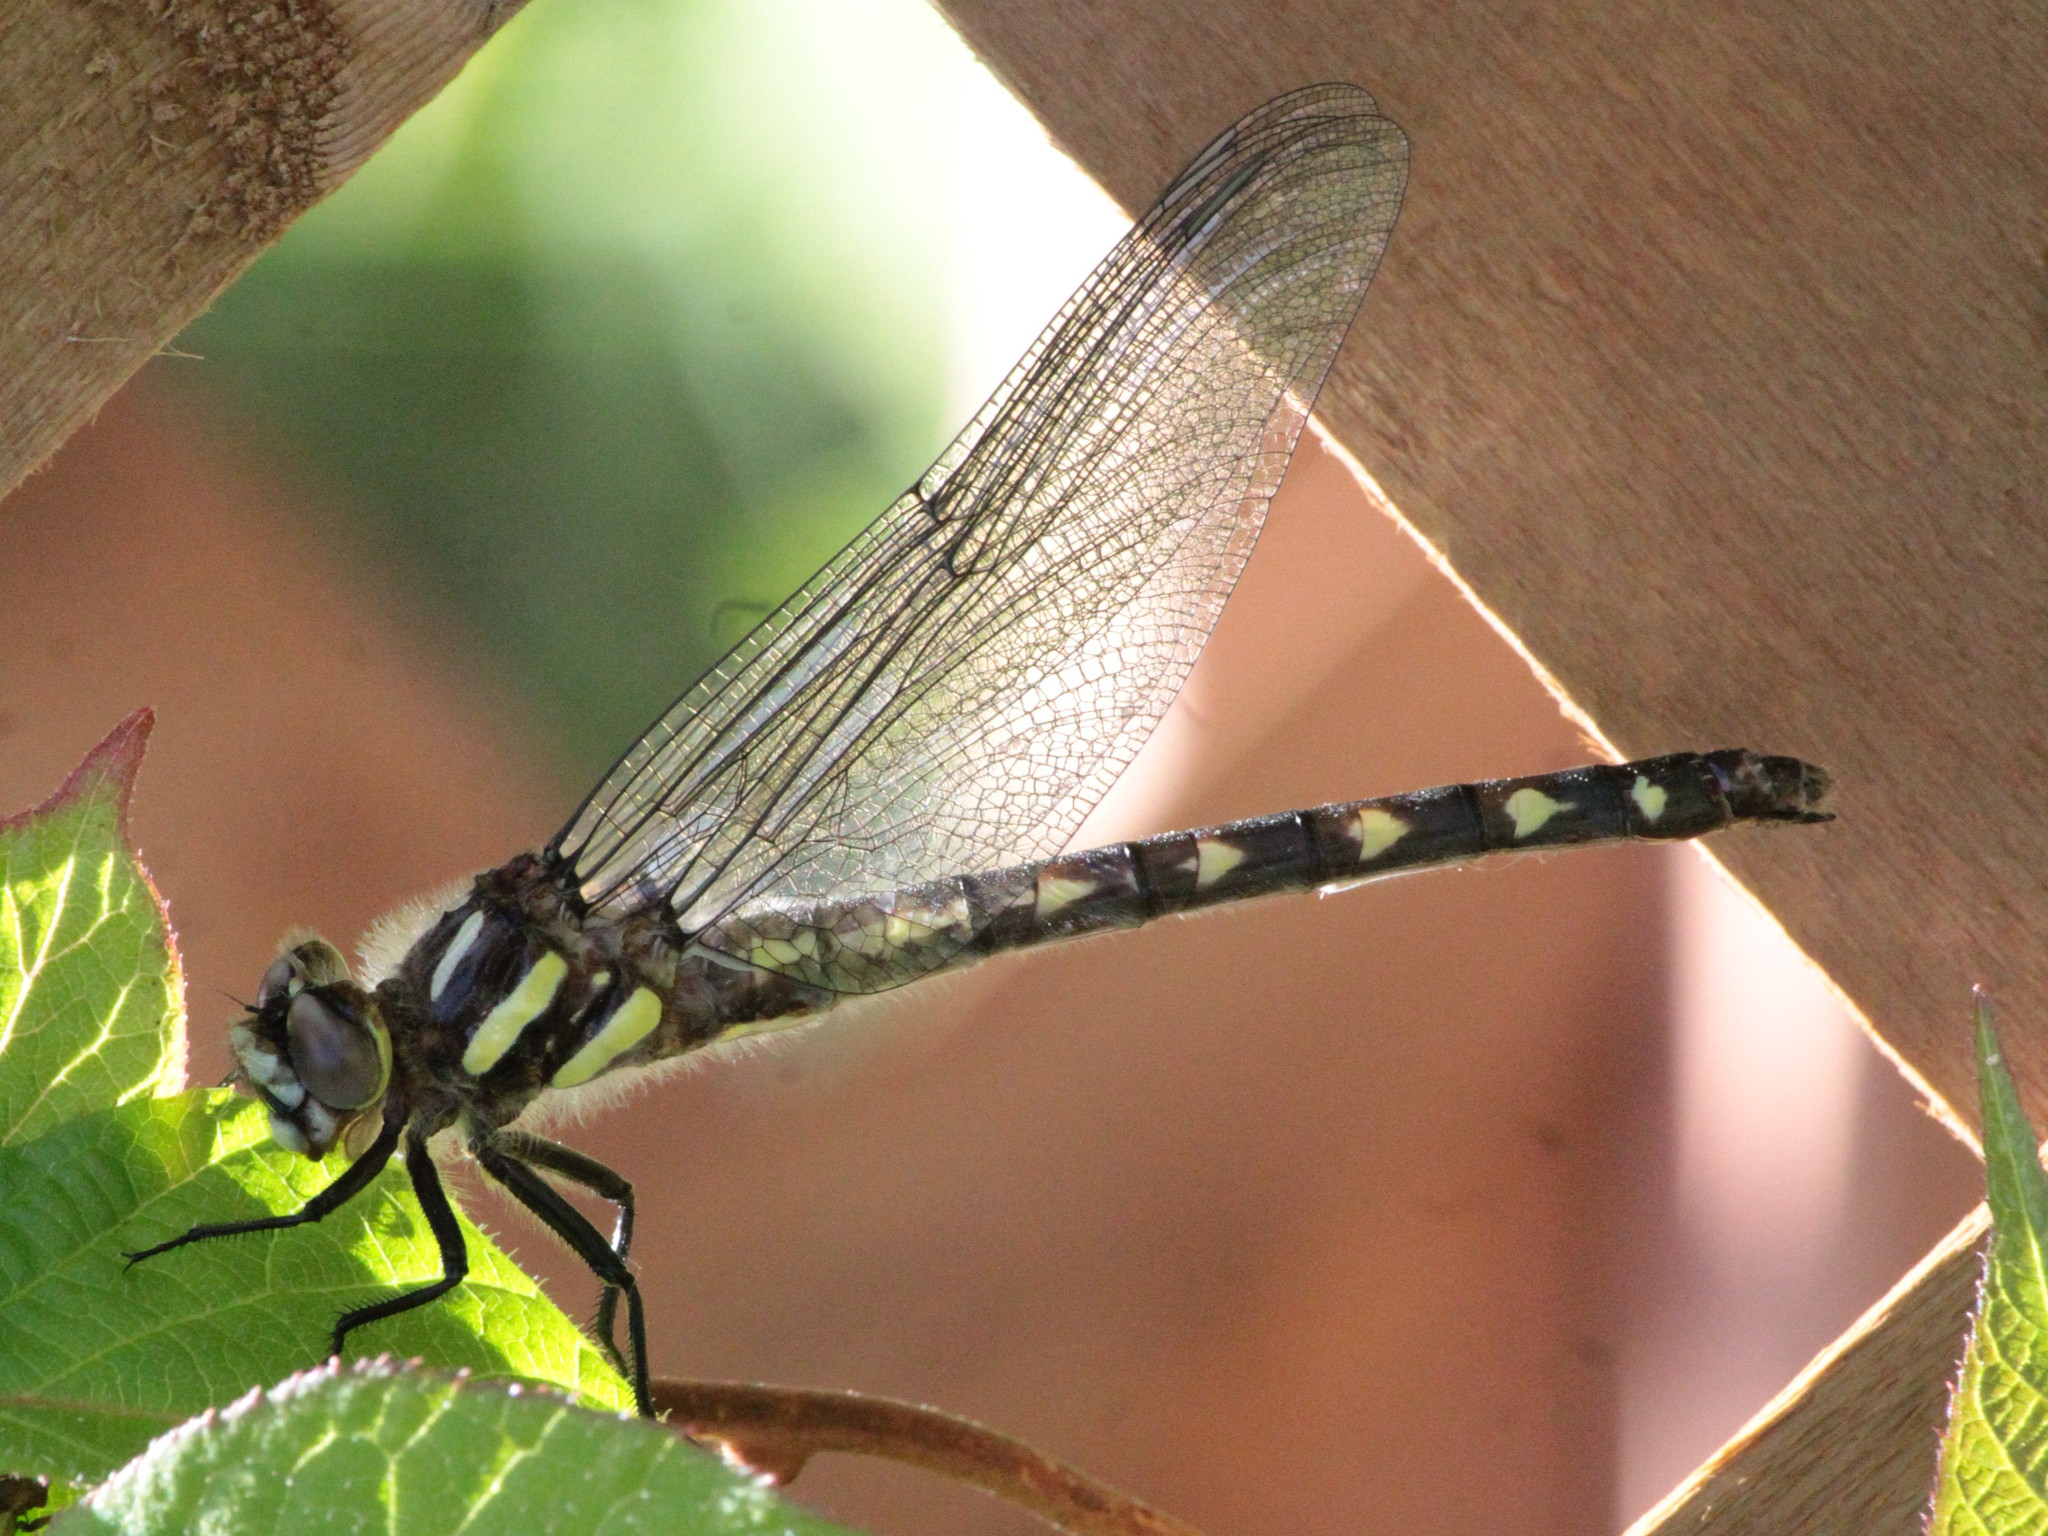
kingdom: Animalia
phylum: Arthropoda
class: Insecta
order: Odonata
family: Cordulegastridae
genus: Cordulegaster
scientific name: Cordulegaster diastatops
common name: Delta-spotted spiketail
